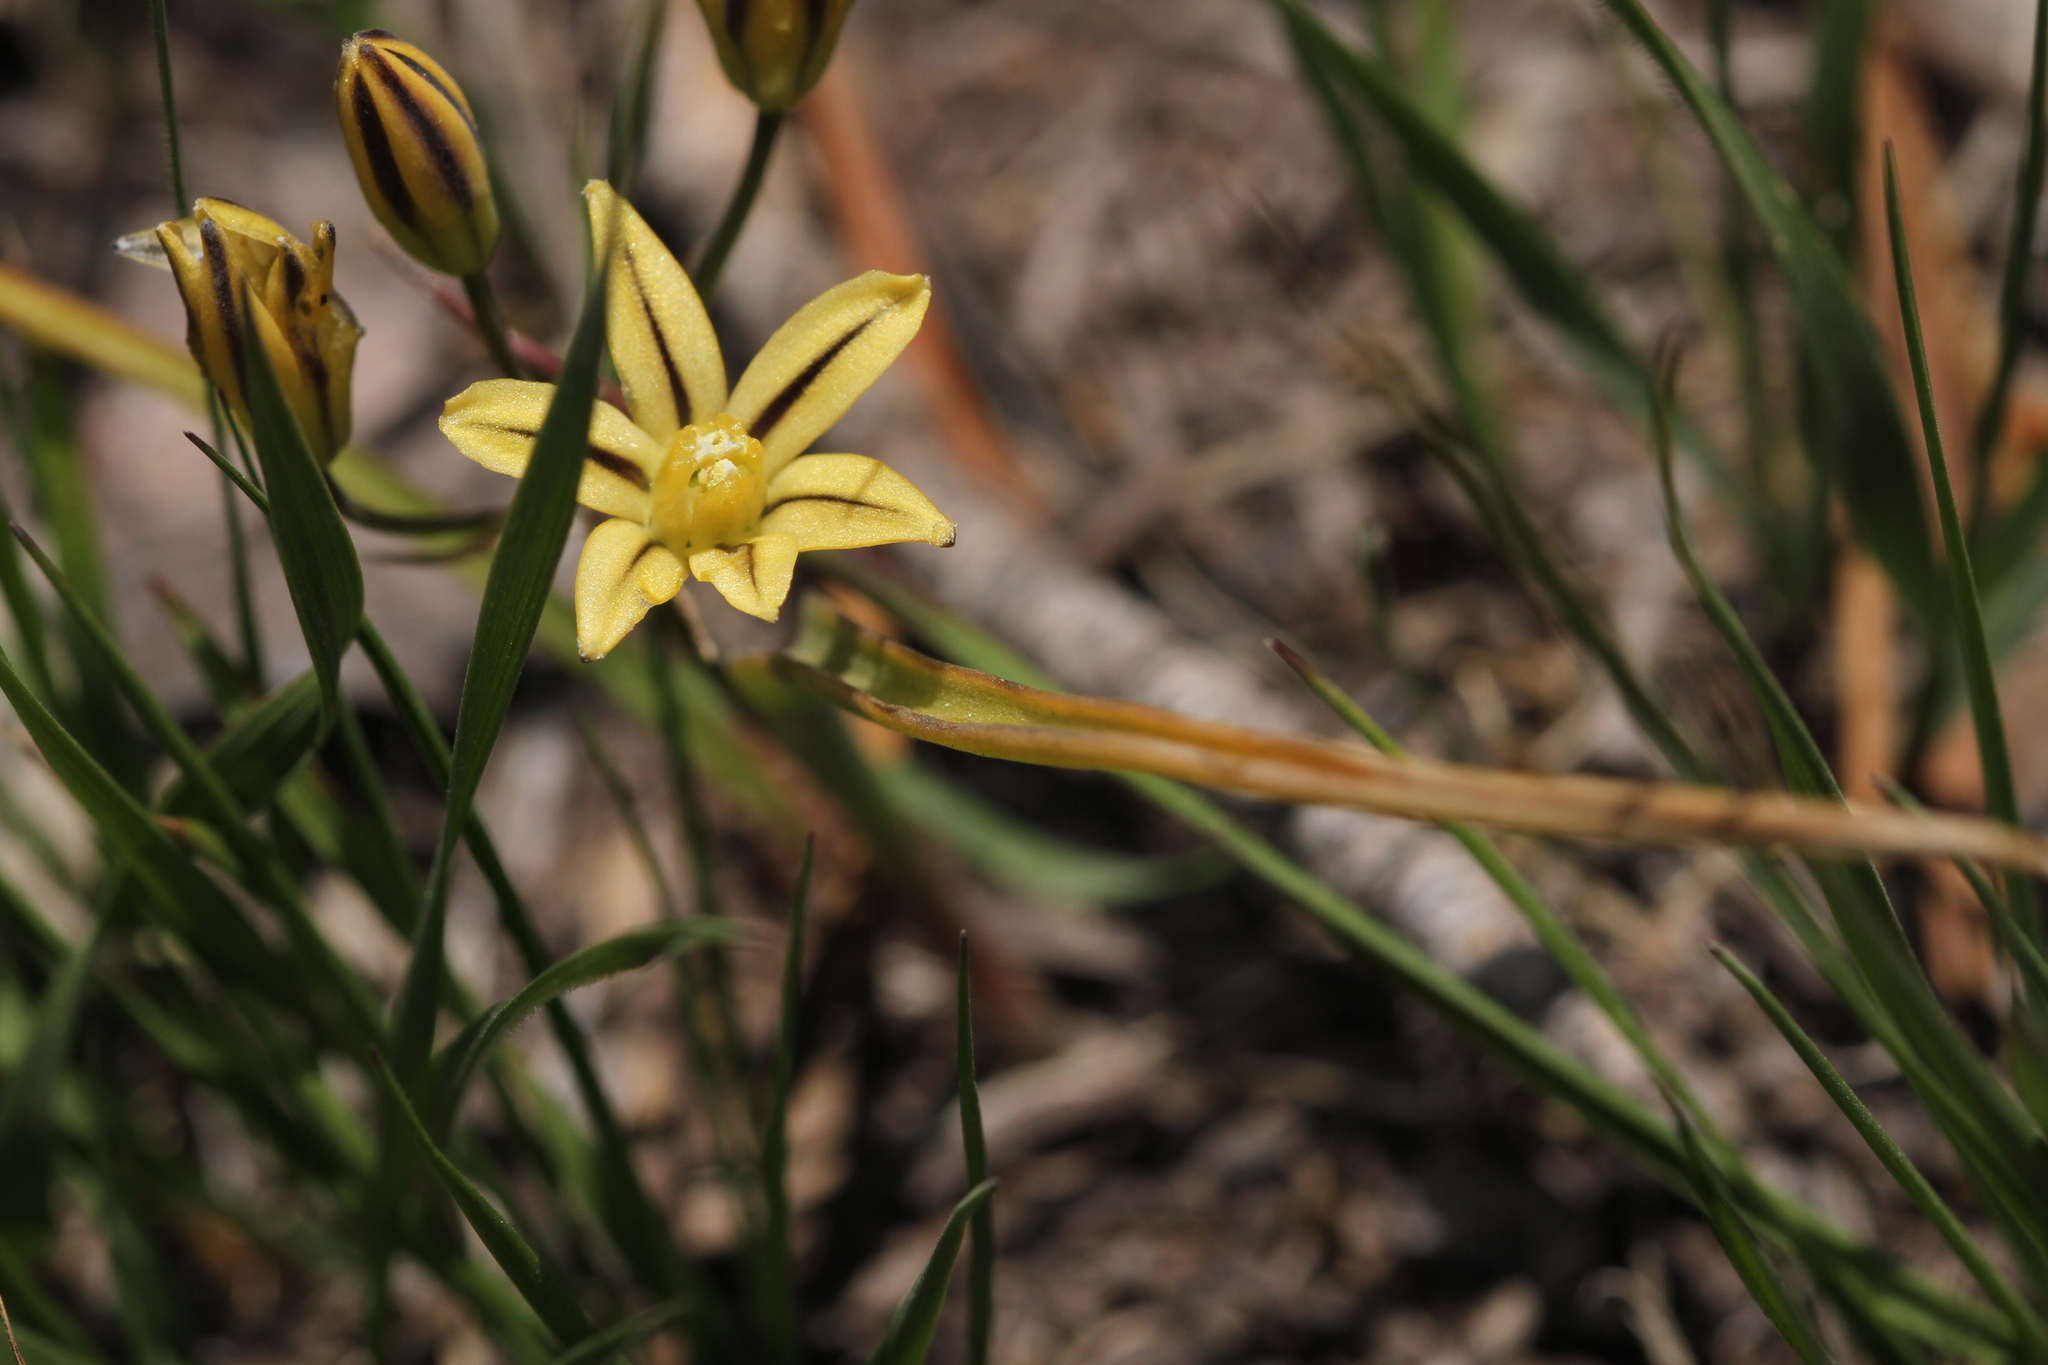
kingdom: Plantae
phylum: Tracheophyta
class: Liliopsida
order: Asparagales
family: Asparagaceae
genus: Triteleia
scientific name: Triteleia ixioides
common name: Yellow-brodiaea
